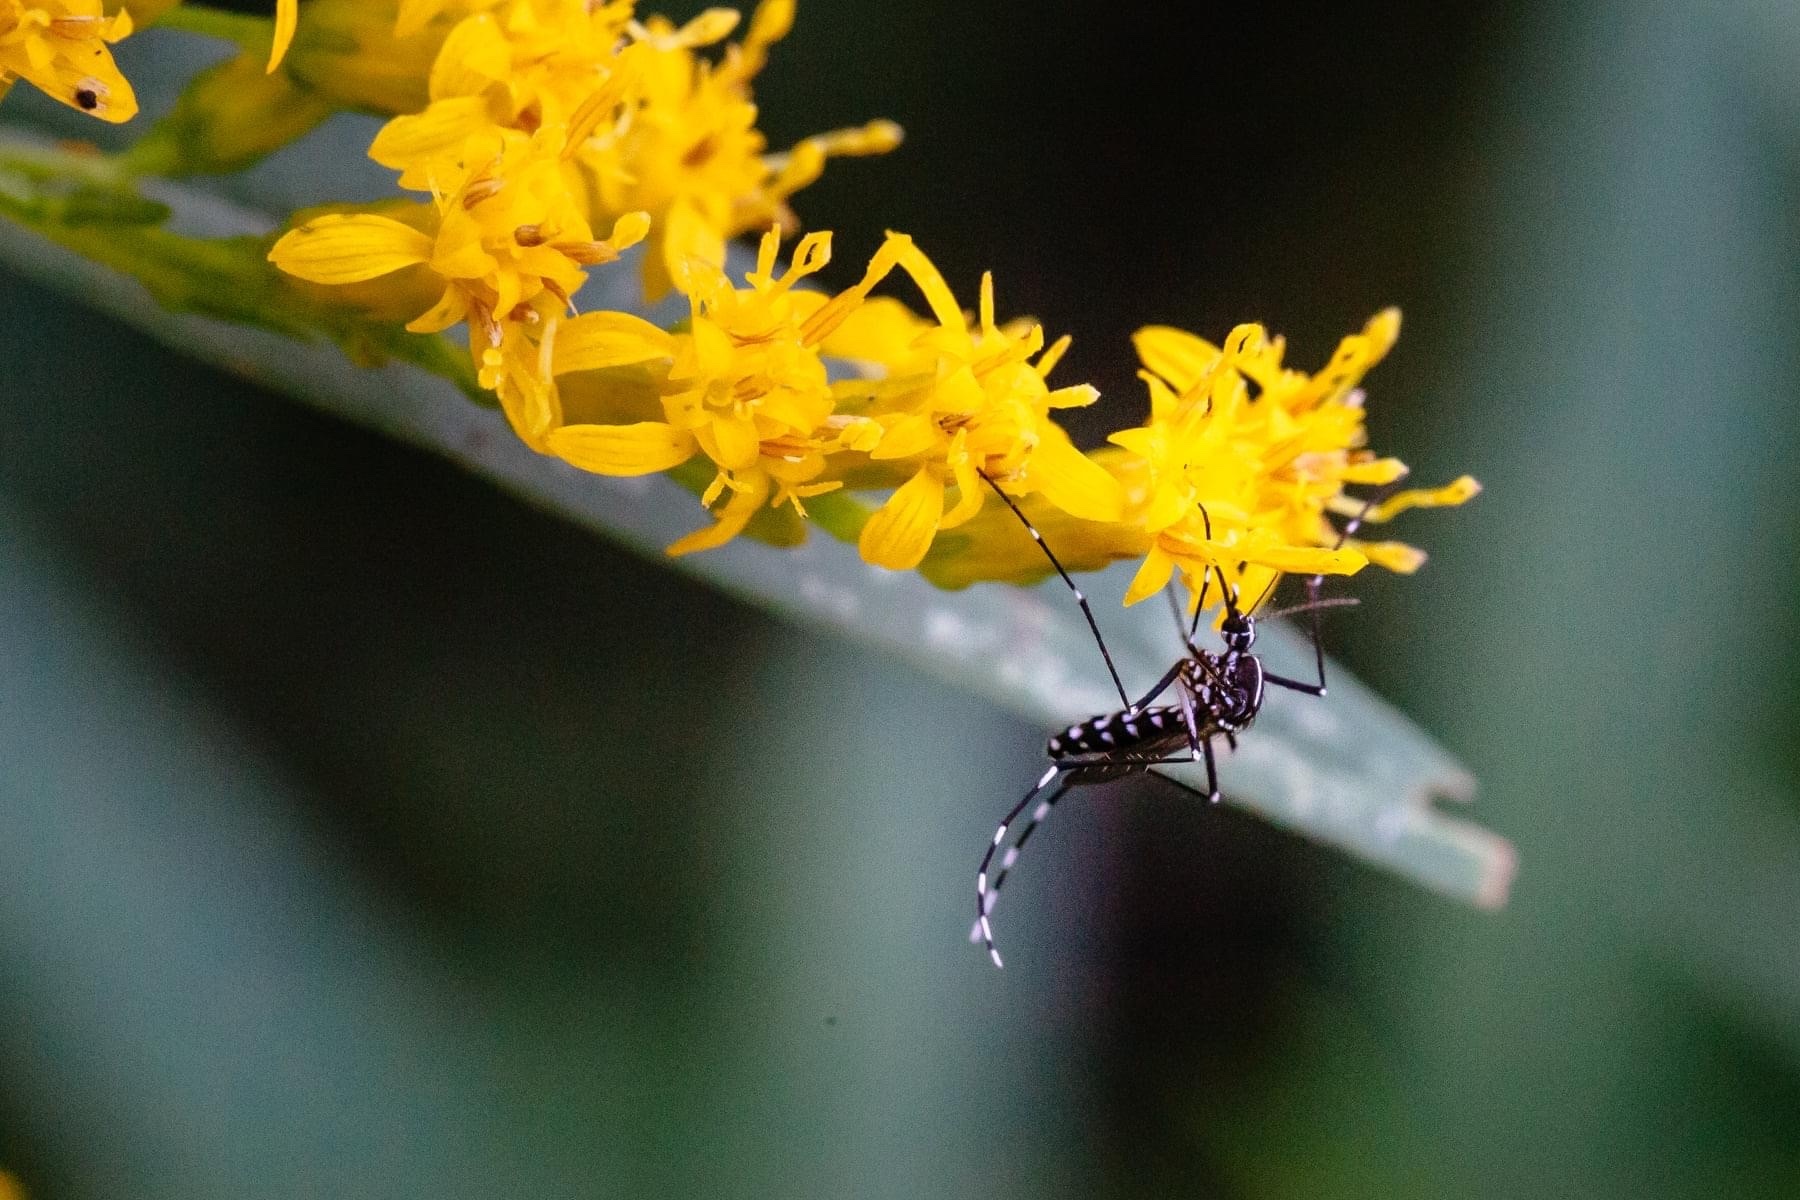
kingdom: Animalia
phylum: Arthropoda
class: Insecta
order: Diptera
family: Culicidae
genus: Aedes
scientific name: Aedes albopictus
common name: Tiger mosquito
